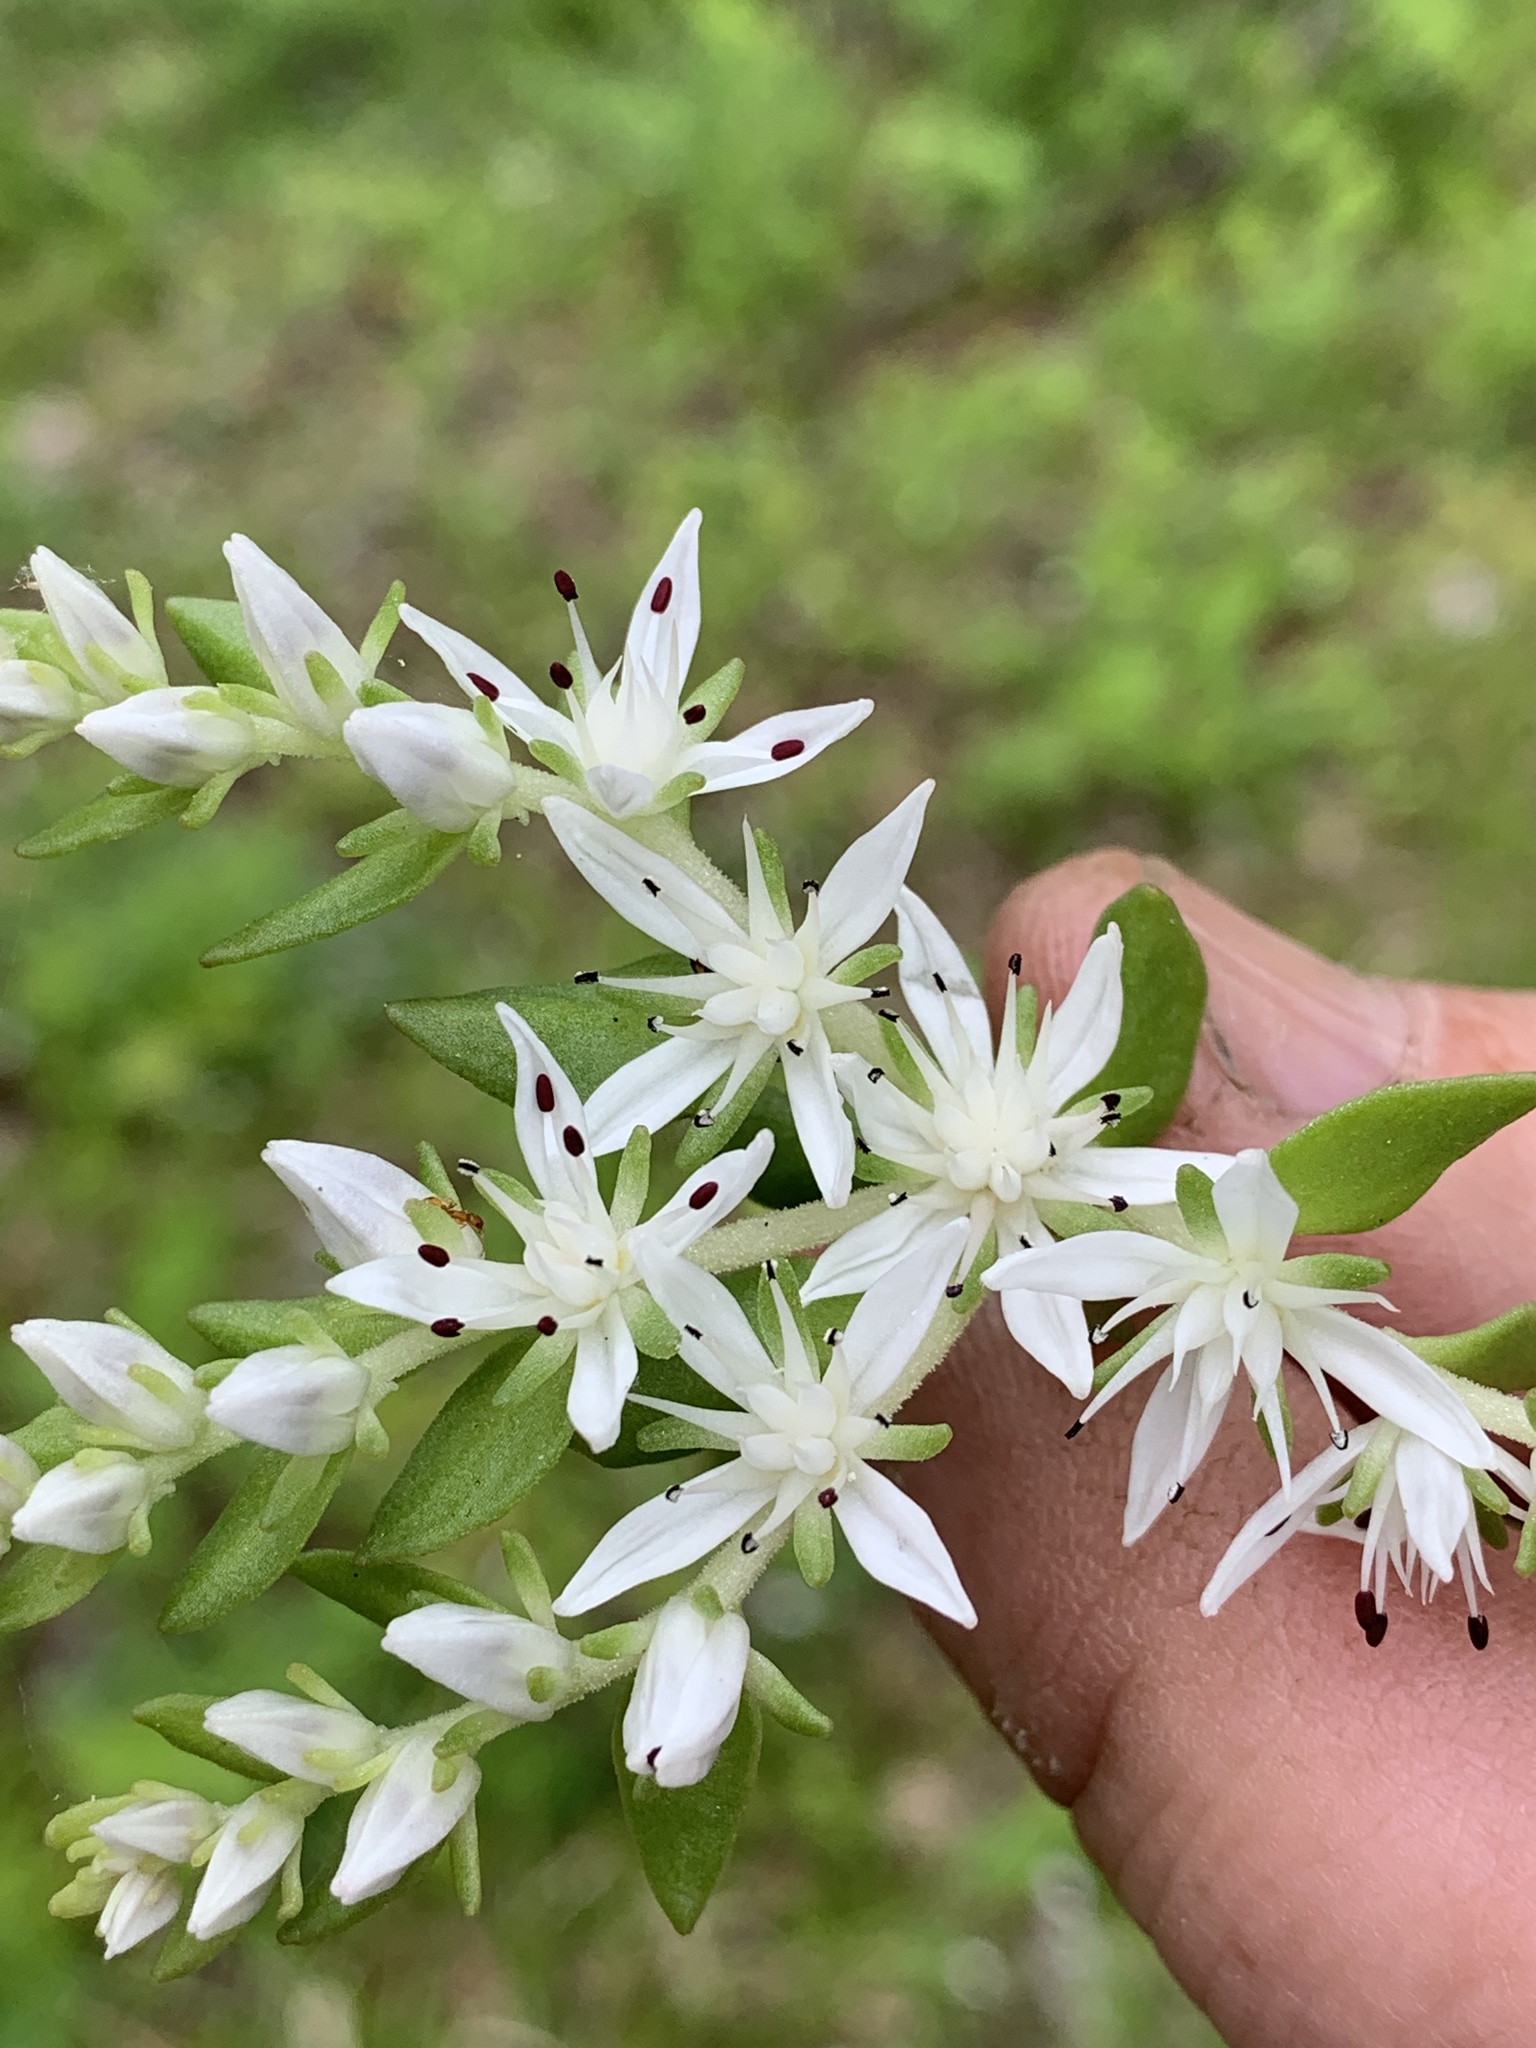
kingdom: Plantae
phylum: Tracheophyta
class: Magnoliopsida
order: Saxifragales
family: Crassulaceae
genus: Sedum
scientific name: Sedum ternatum
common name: Wild stonecrop
